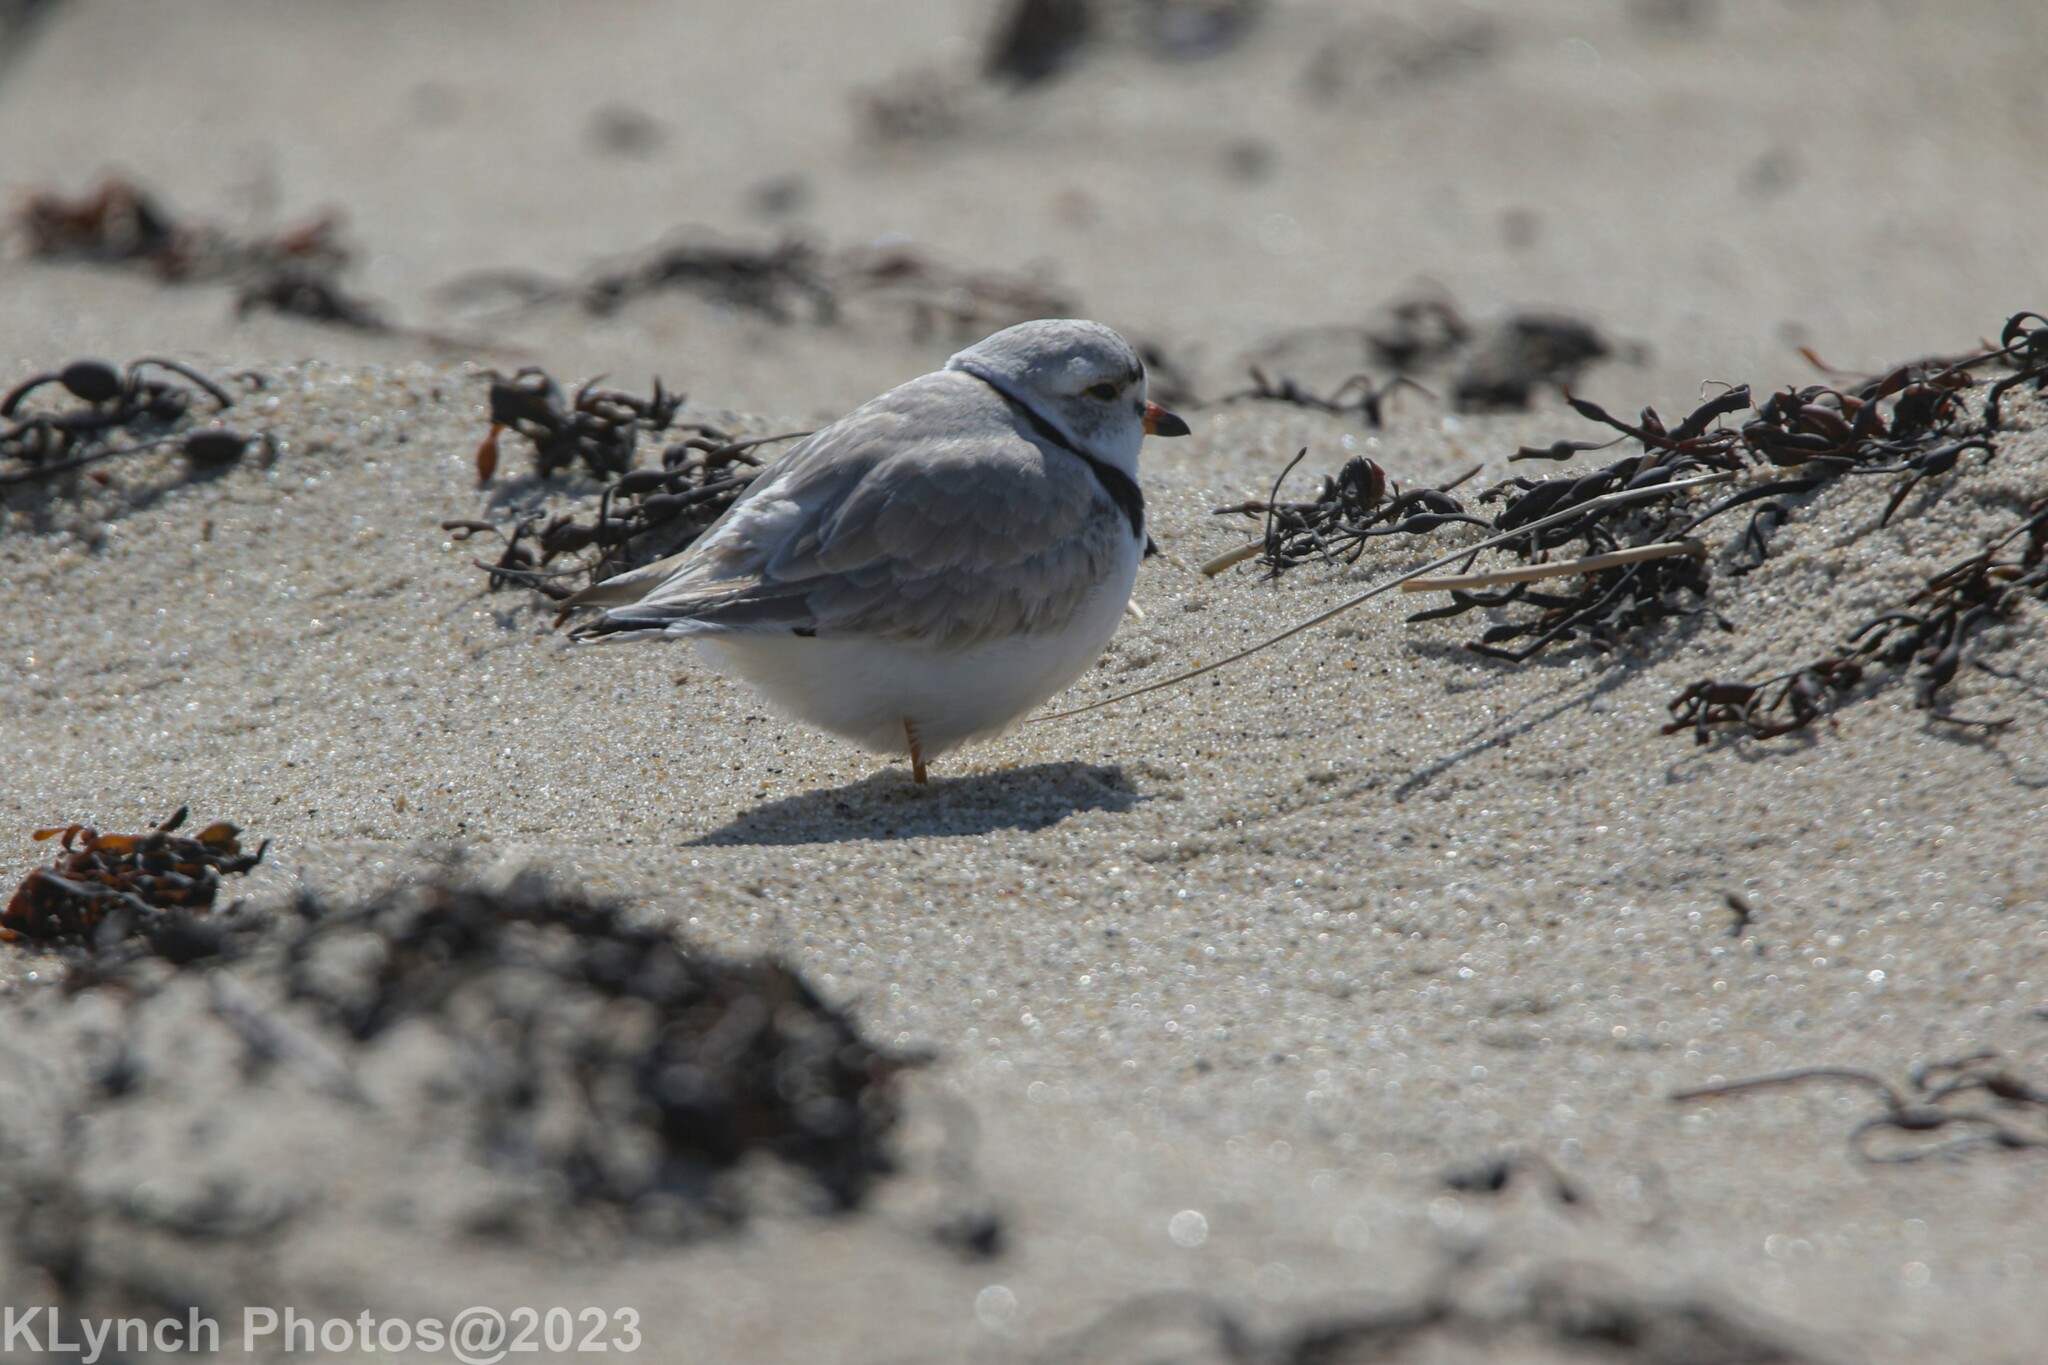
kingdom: Animalia
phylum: Chordata
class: Aves
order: Charadriiformes
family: Charadriidae
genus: Charadrius
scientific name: Charadrius melodus
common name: Piping plover
